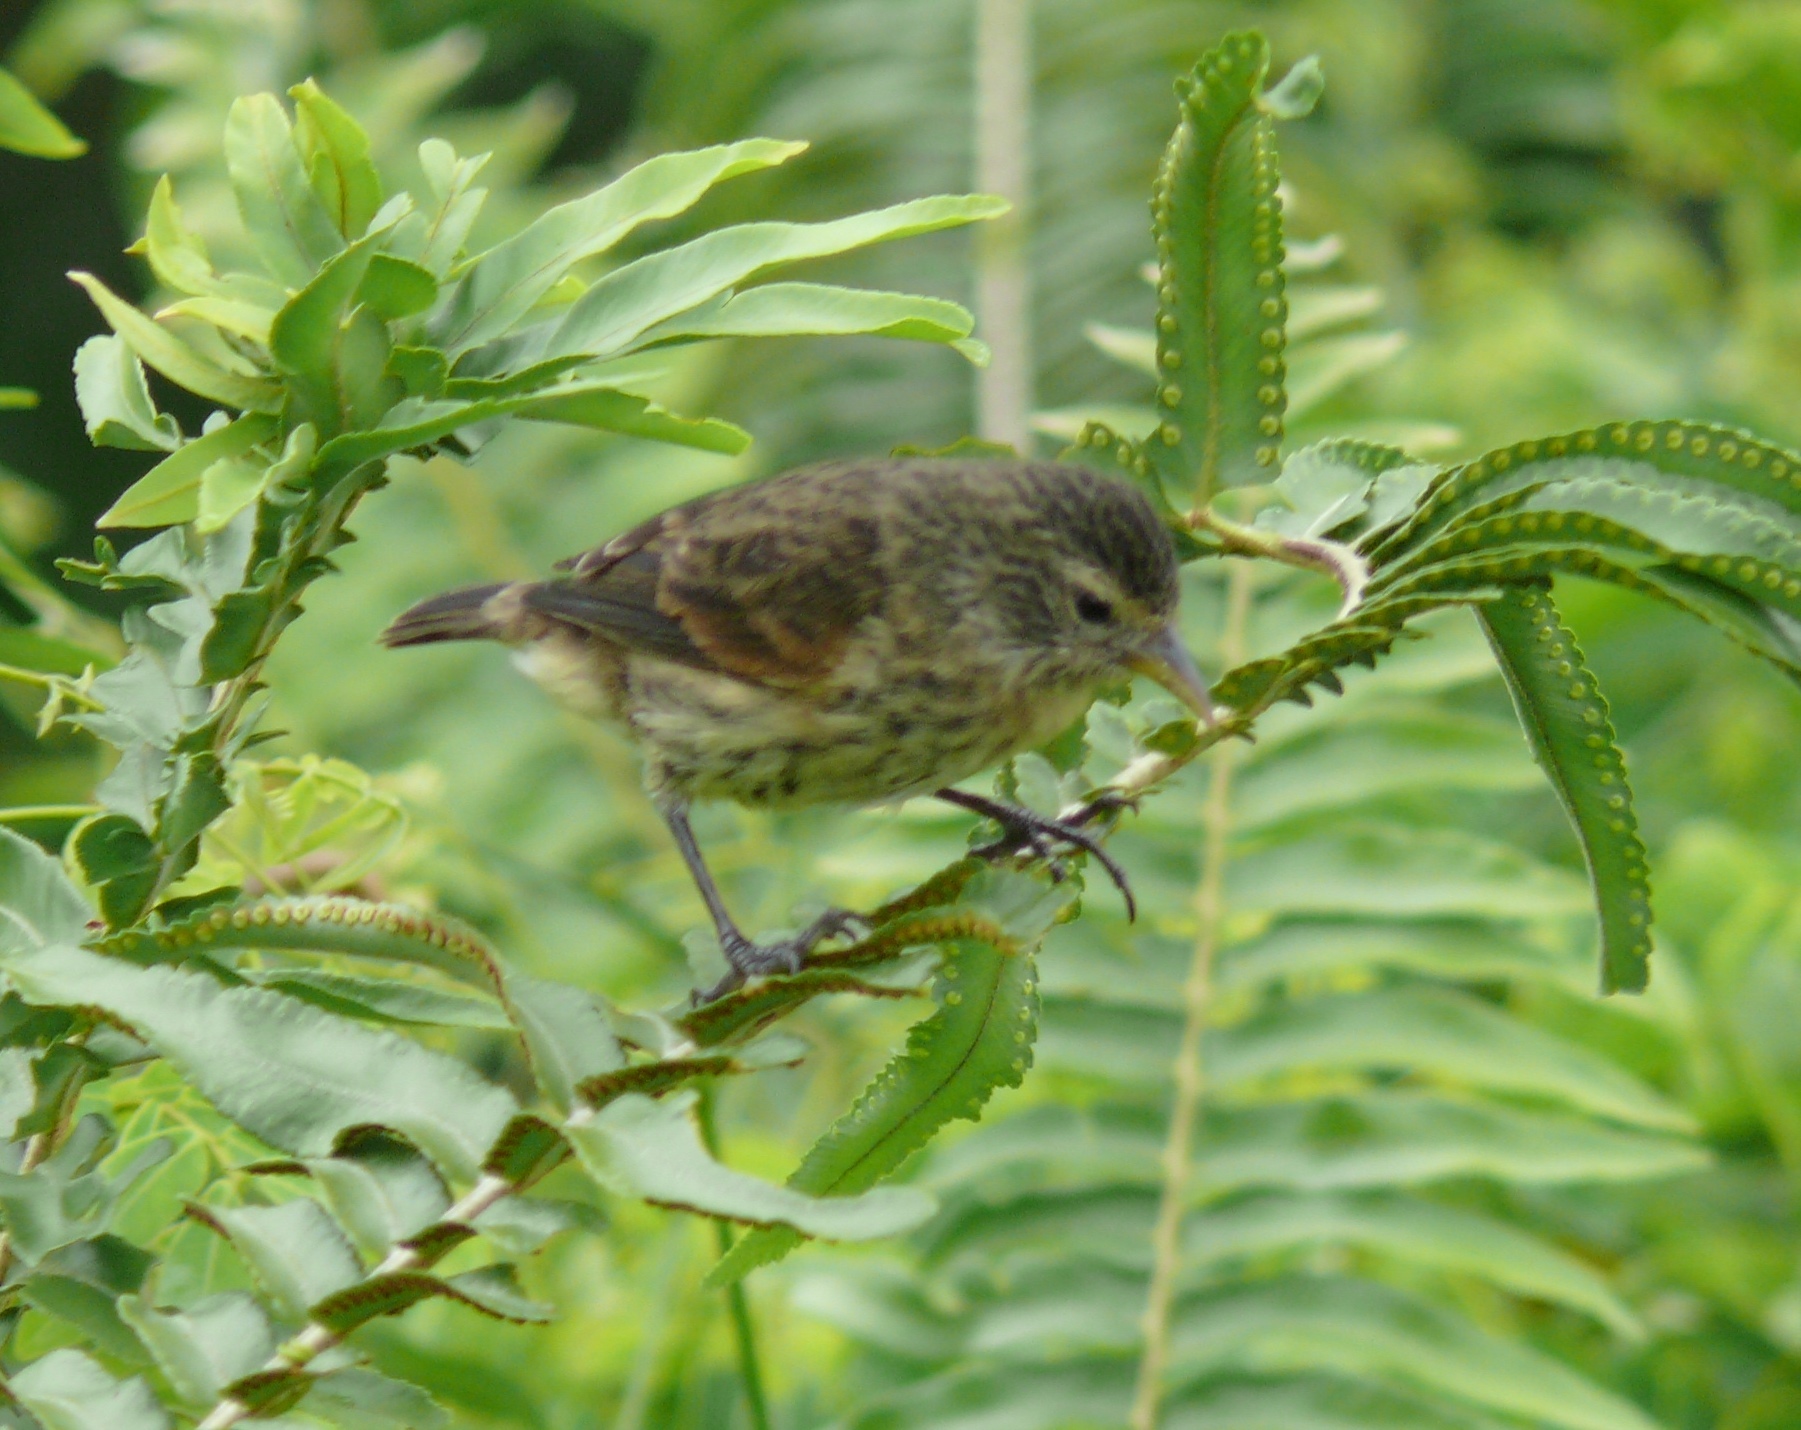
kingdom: Animalia
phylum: Chordata
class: Aves
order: Passeriformes
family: Thraupidae
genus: Pinaroloxias
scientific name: Pinaroloxias inornata
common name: Cocos finch
